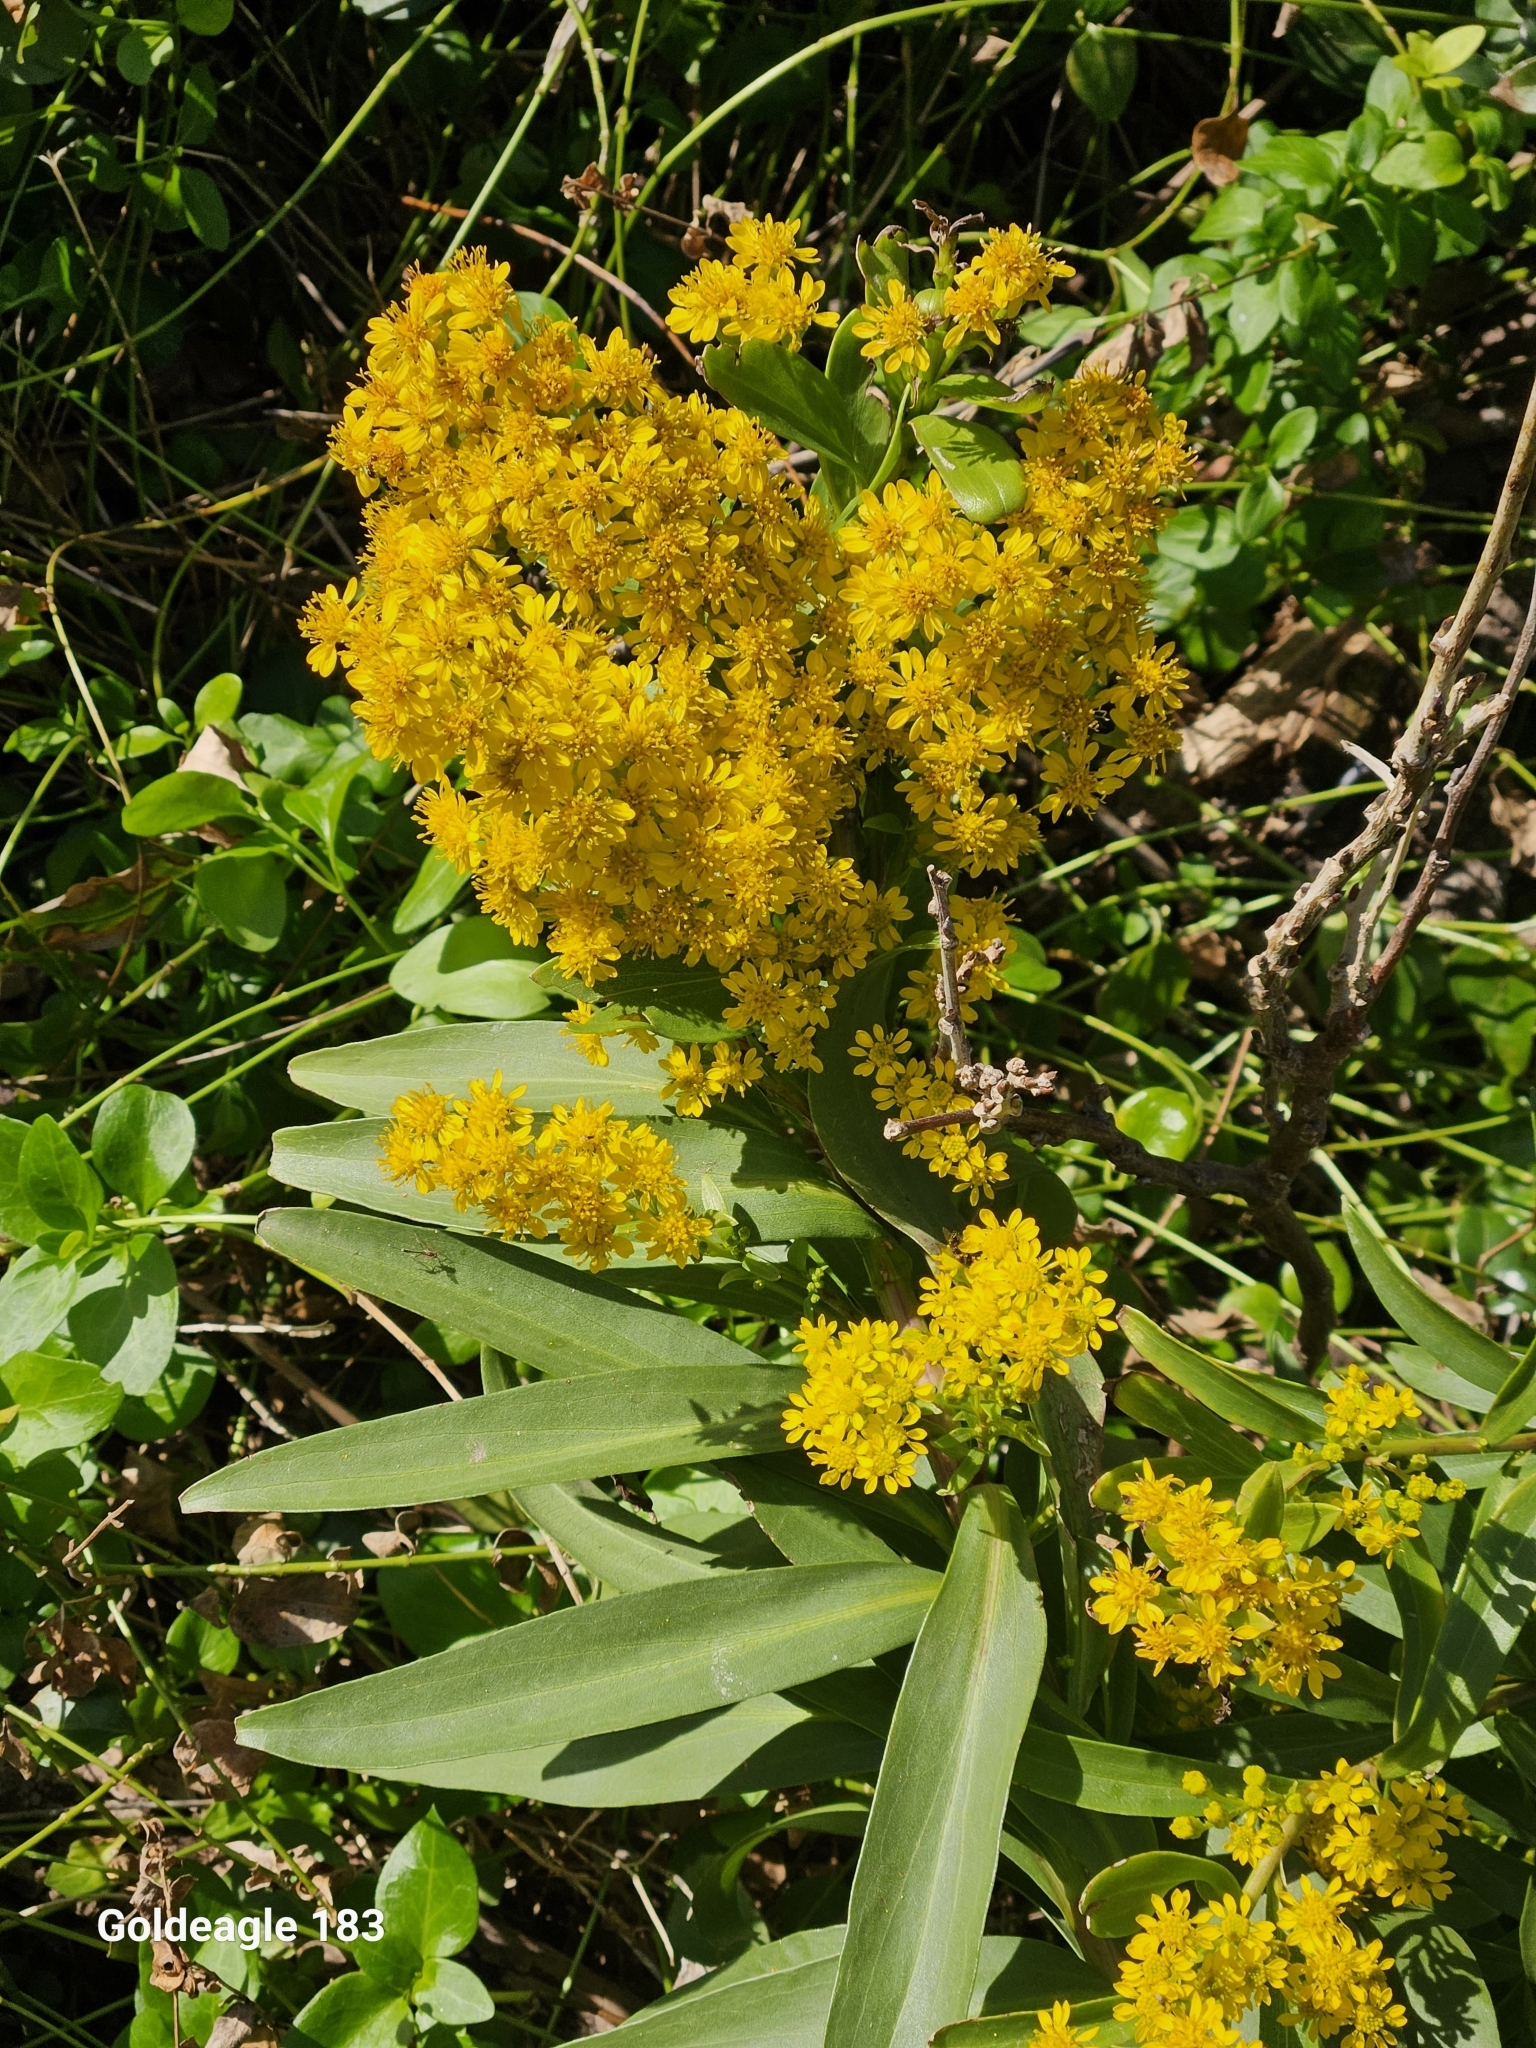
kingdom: Plantae
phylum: Tracheophyta
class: Magnoliopsida
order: Asterales
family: Asteraceae
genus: Solidago
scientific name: Solidago sempervirens
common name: Salt-marsh goldenrod
